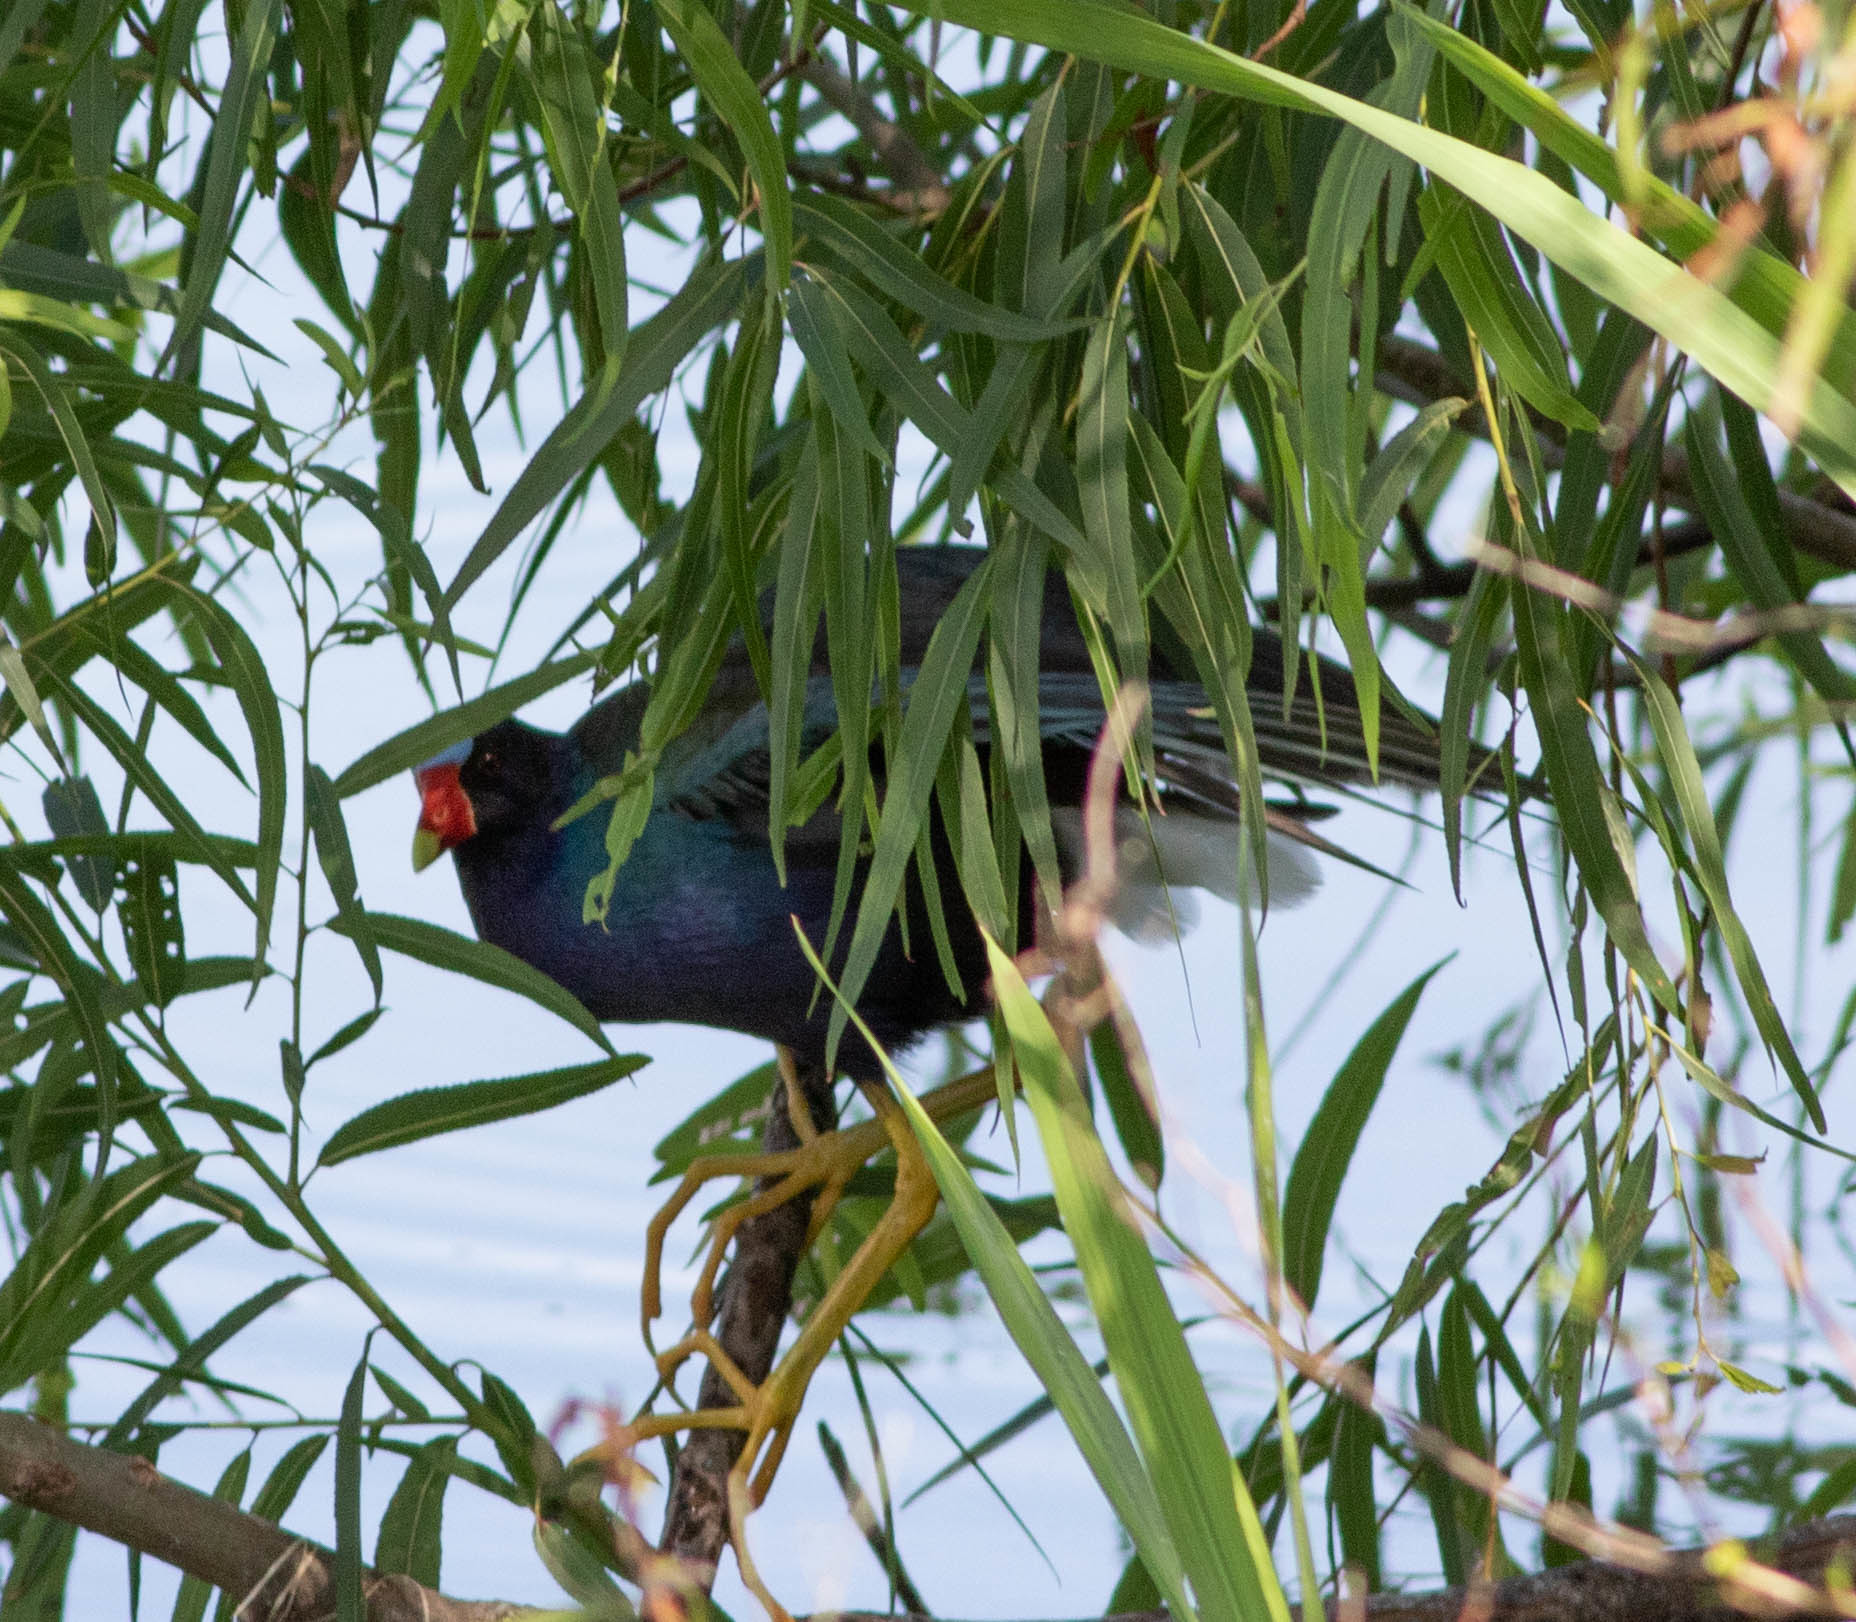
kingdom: Animalia
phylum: Chordata
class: Aves
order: Gruiformes
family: Rallidae
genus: Porphyrio
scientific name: Porphyrio martinica
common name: Purple gallinule
